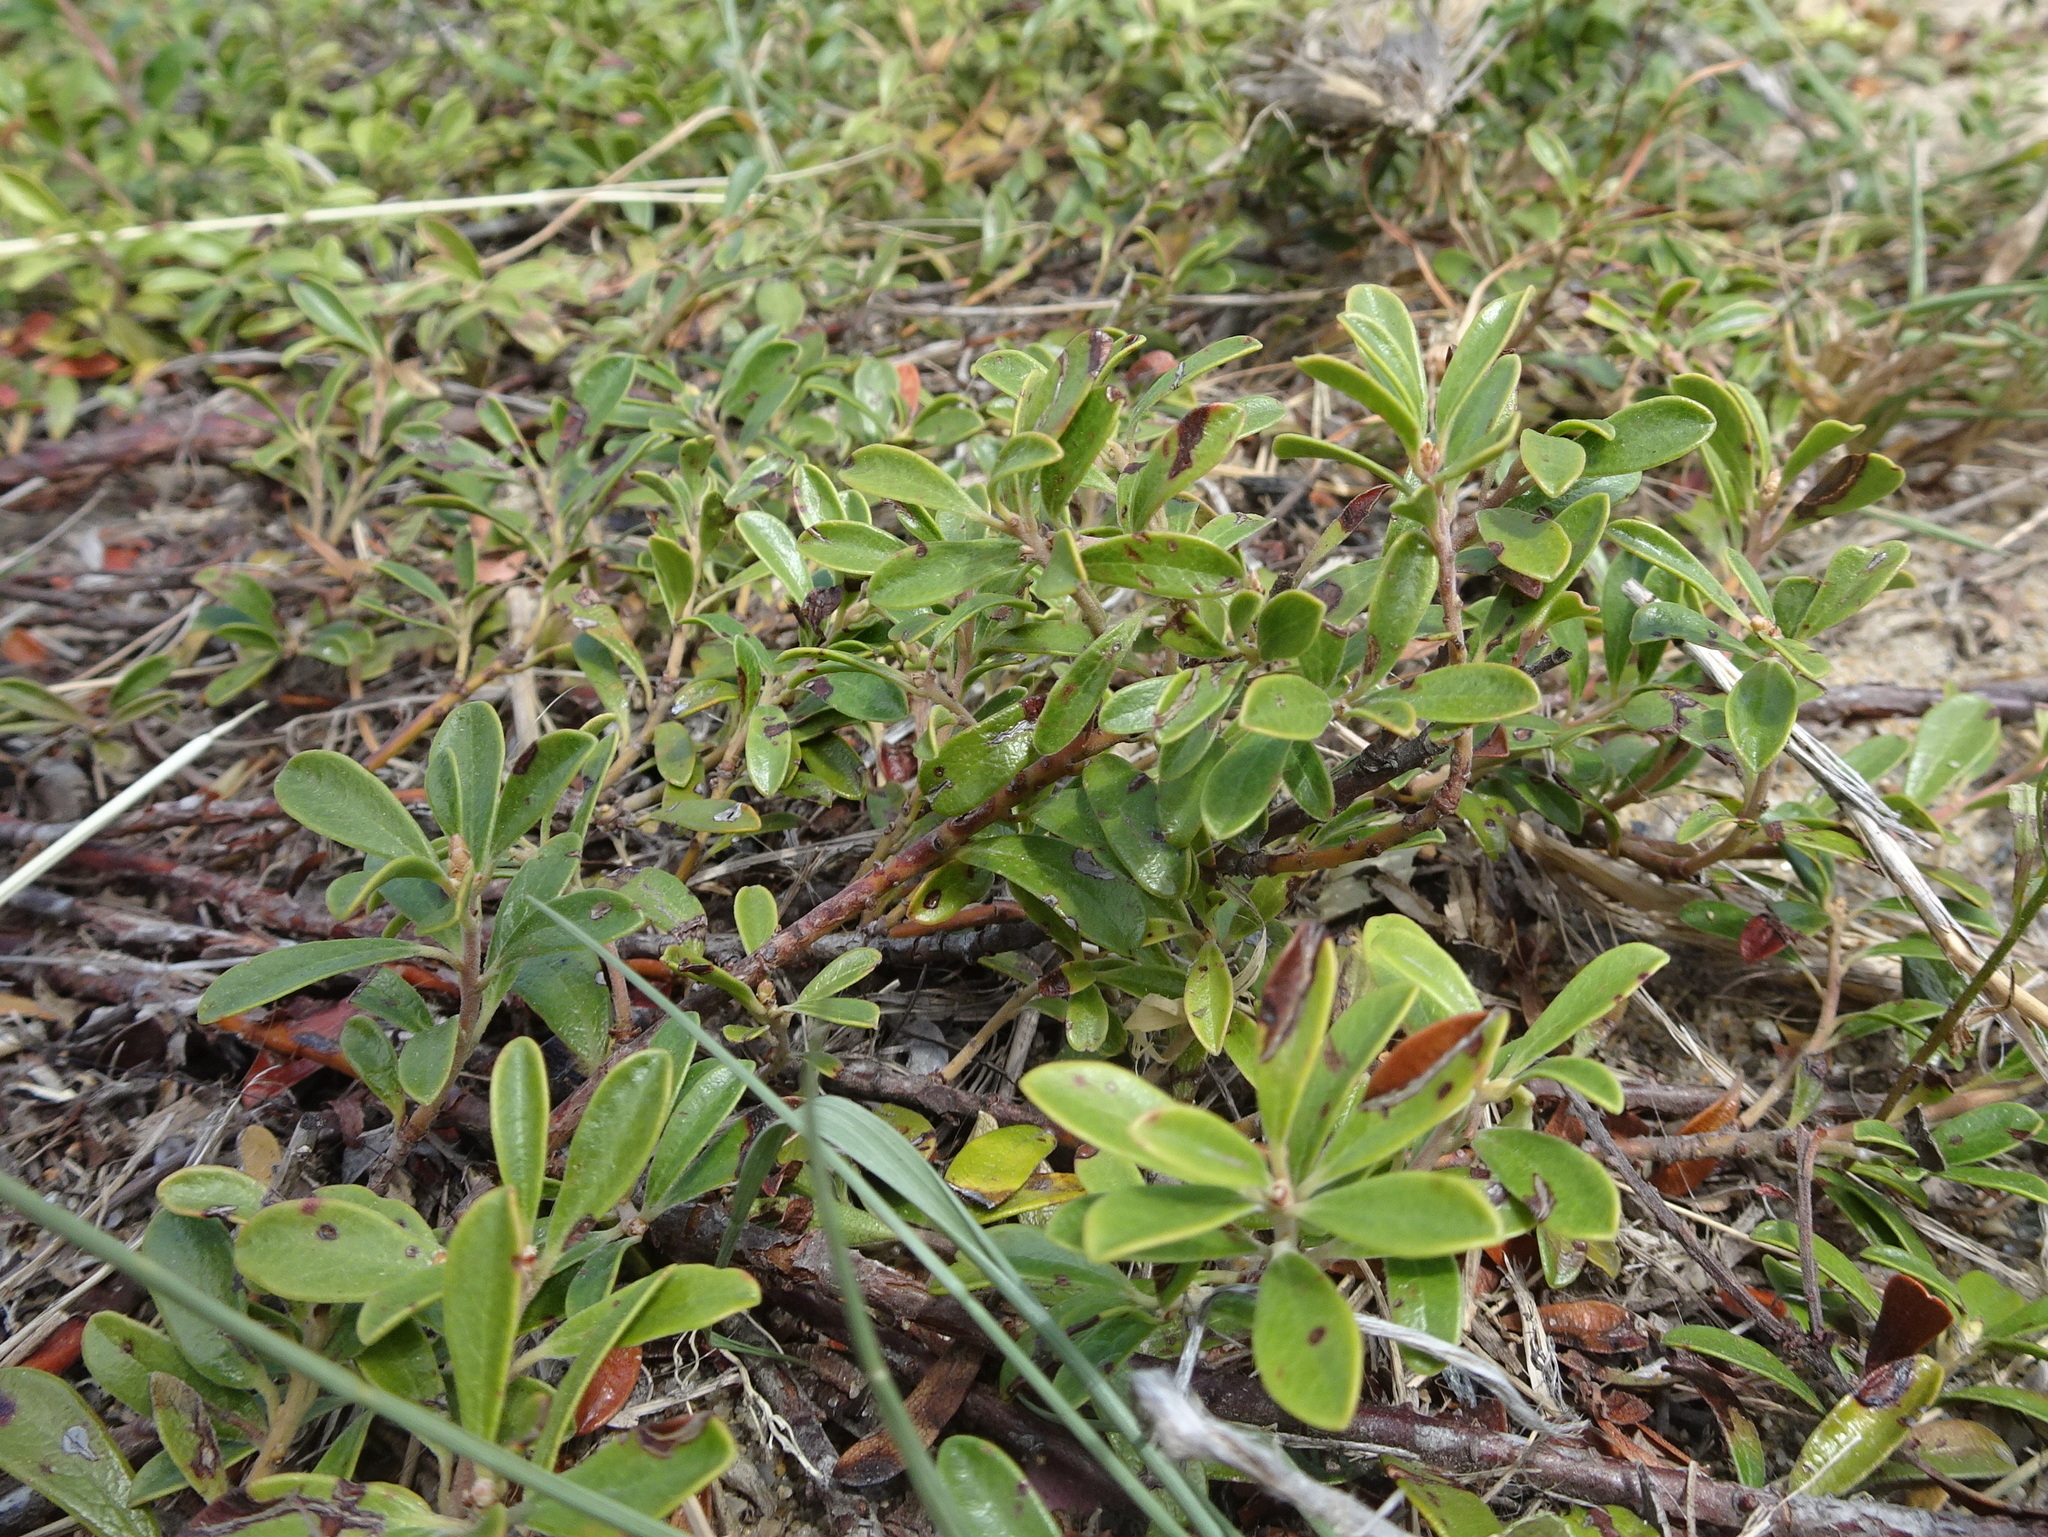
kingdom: Plantae
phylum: Tracheophyta
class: Magnoliopsida
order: Ericales
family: Ericaceae
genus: Arctostaphylos
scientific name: Arctostaphylos uva-ursi
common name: Bearberry
